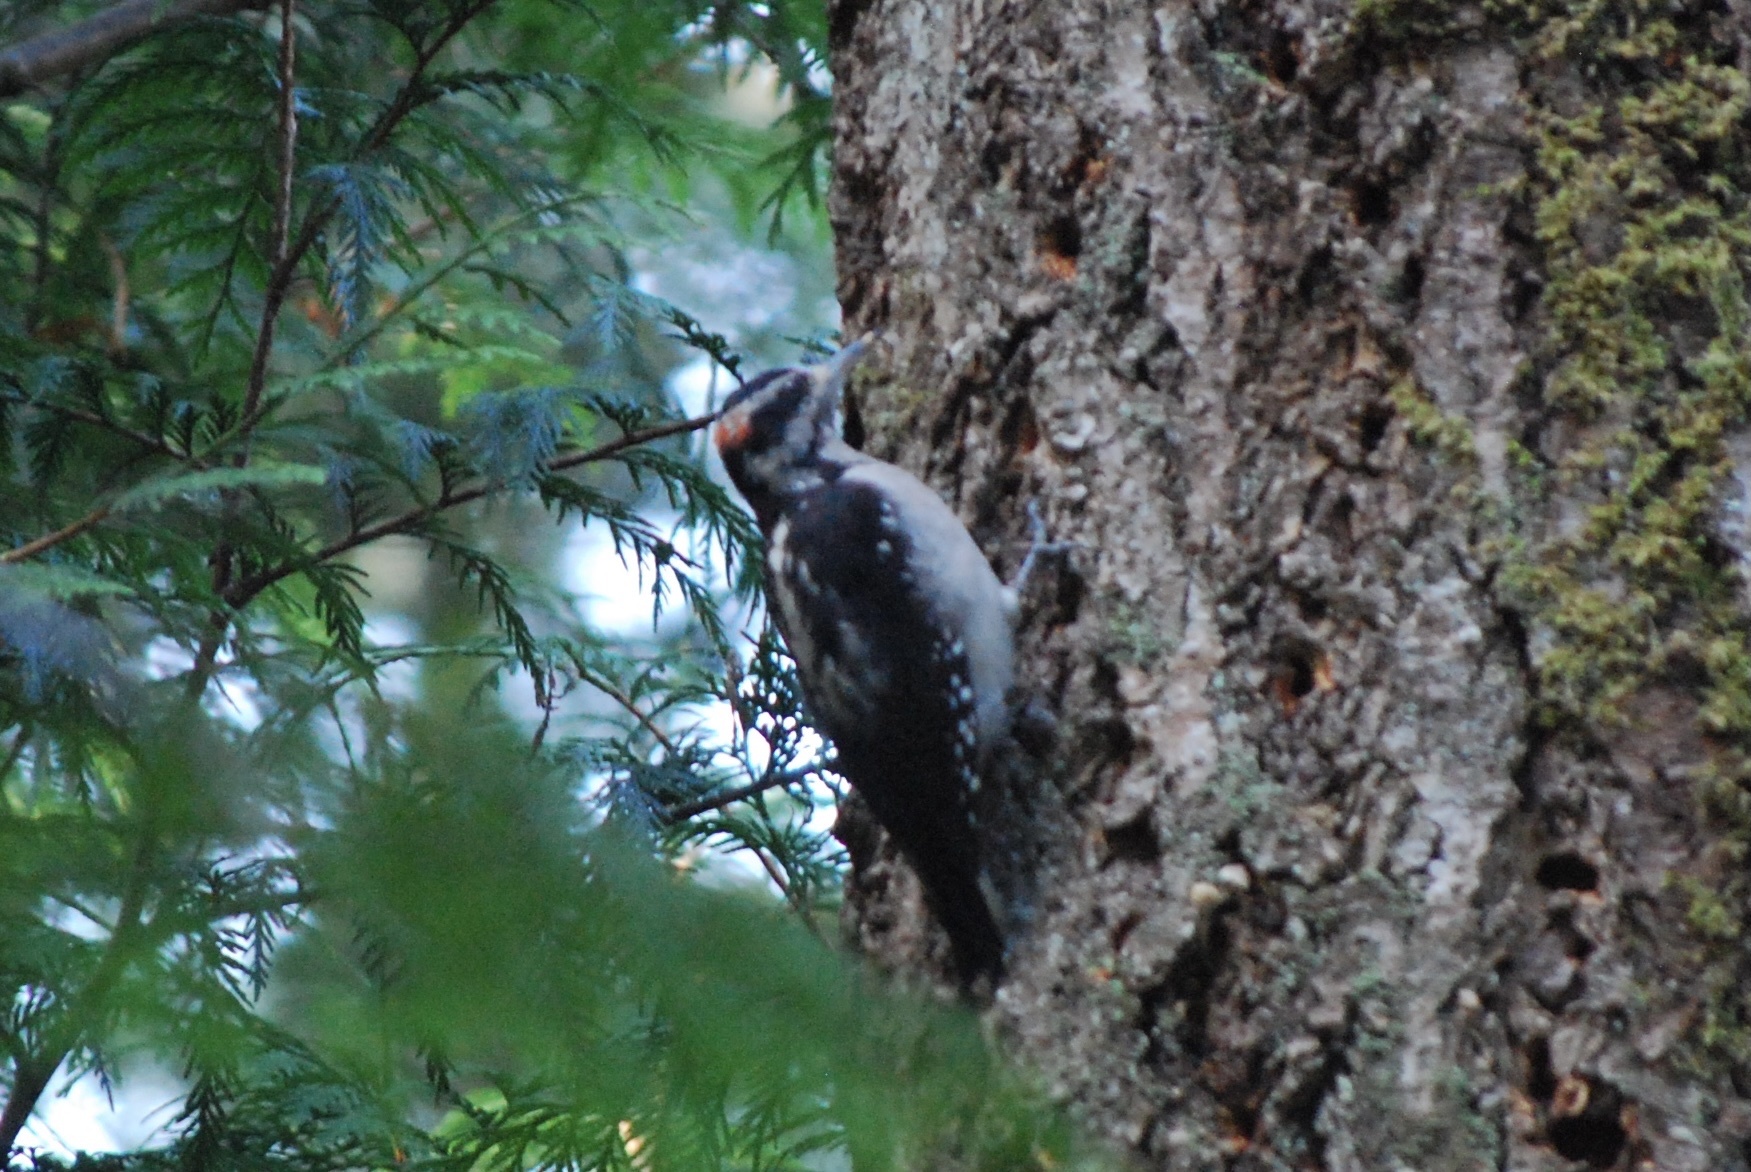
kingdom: Animalia
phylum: Chordata
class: Aves
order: Piciformes
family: Picidae
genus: Leuconotopicus
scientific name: Leuconotopicus villosus
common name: Hairy woodpecker
